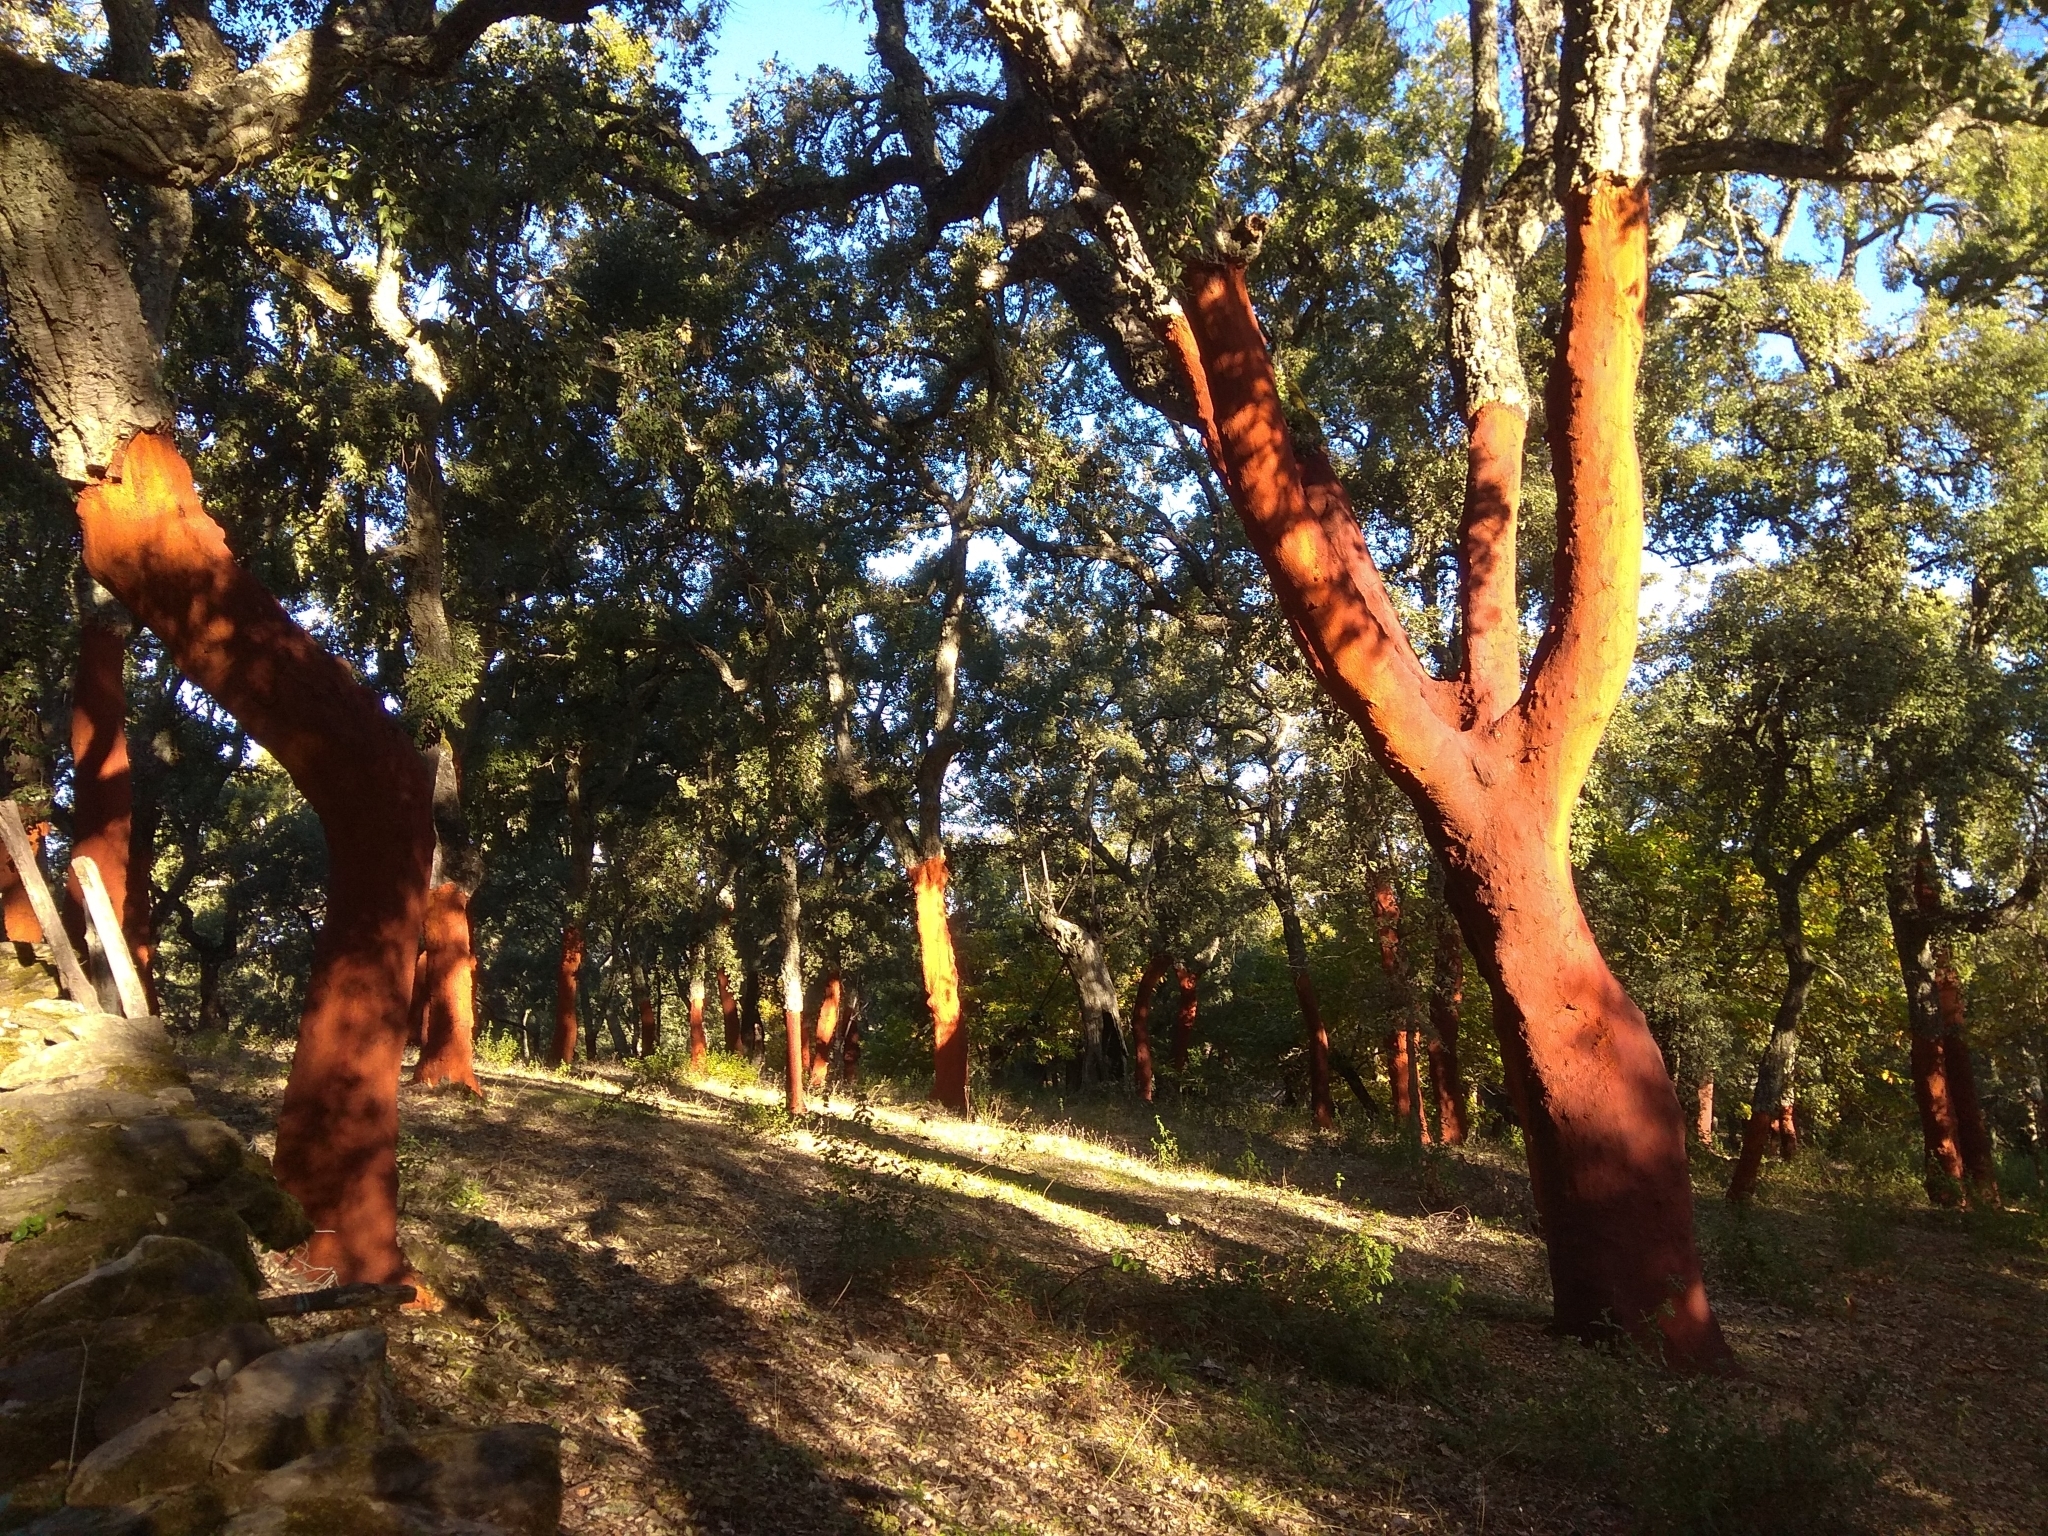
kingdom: Plantae
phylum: Tracheophyta
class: Magnoliopsida
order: Fagales
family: Fagaceae
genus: Quercus
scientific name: Quercus suber
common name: Cork oak
